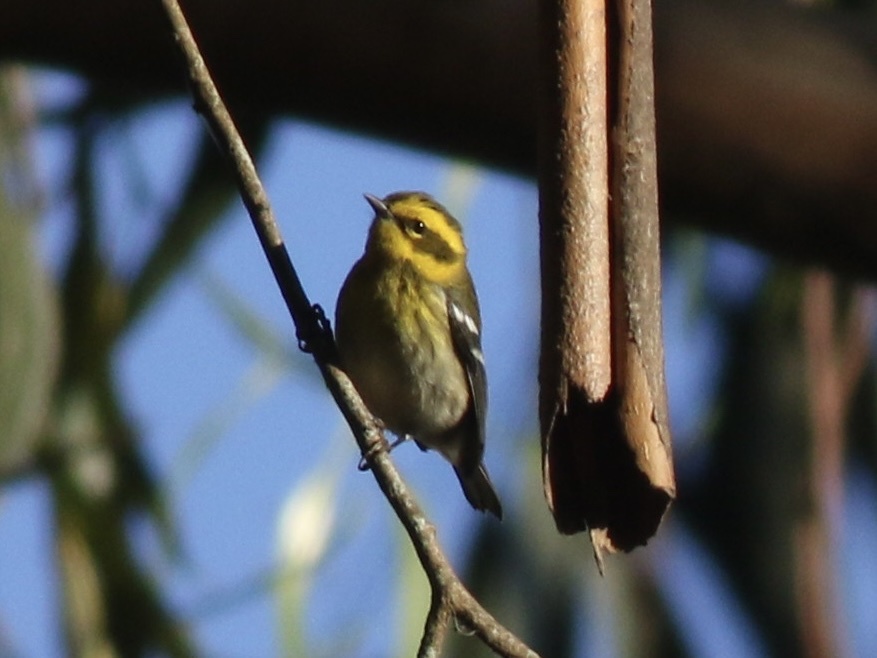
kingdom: Animalia
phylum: Chordata
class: Aves
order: Passeriformes
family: Parulidae
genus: Setophaga
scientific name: Setophaga townsendi
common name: Townsend's warbler
